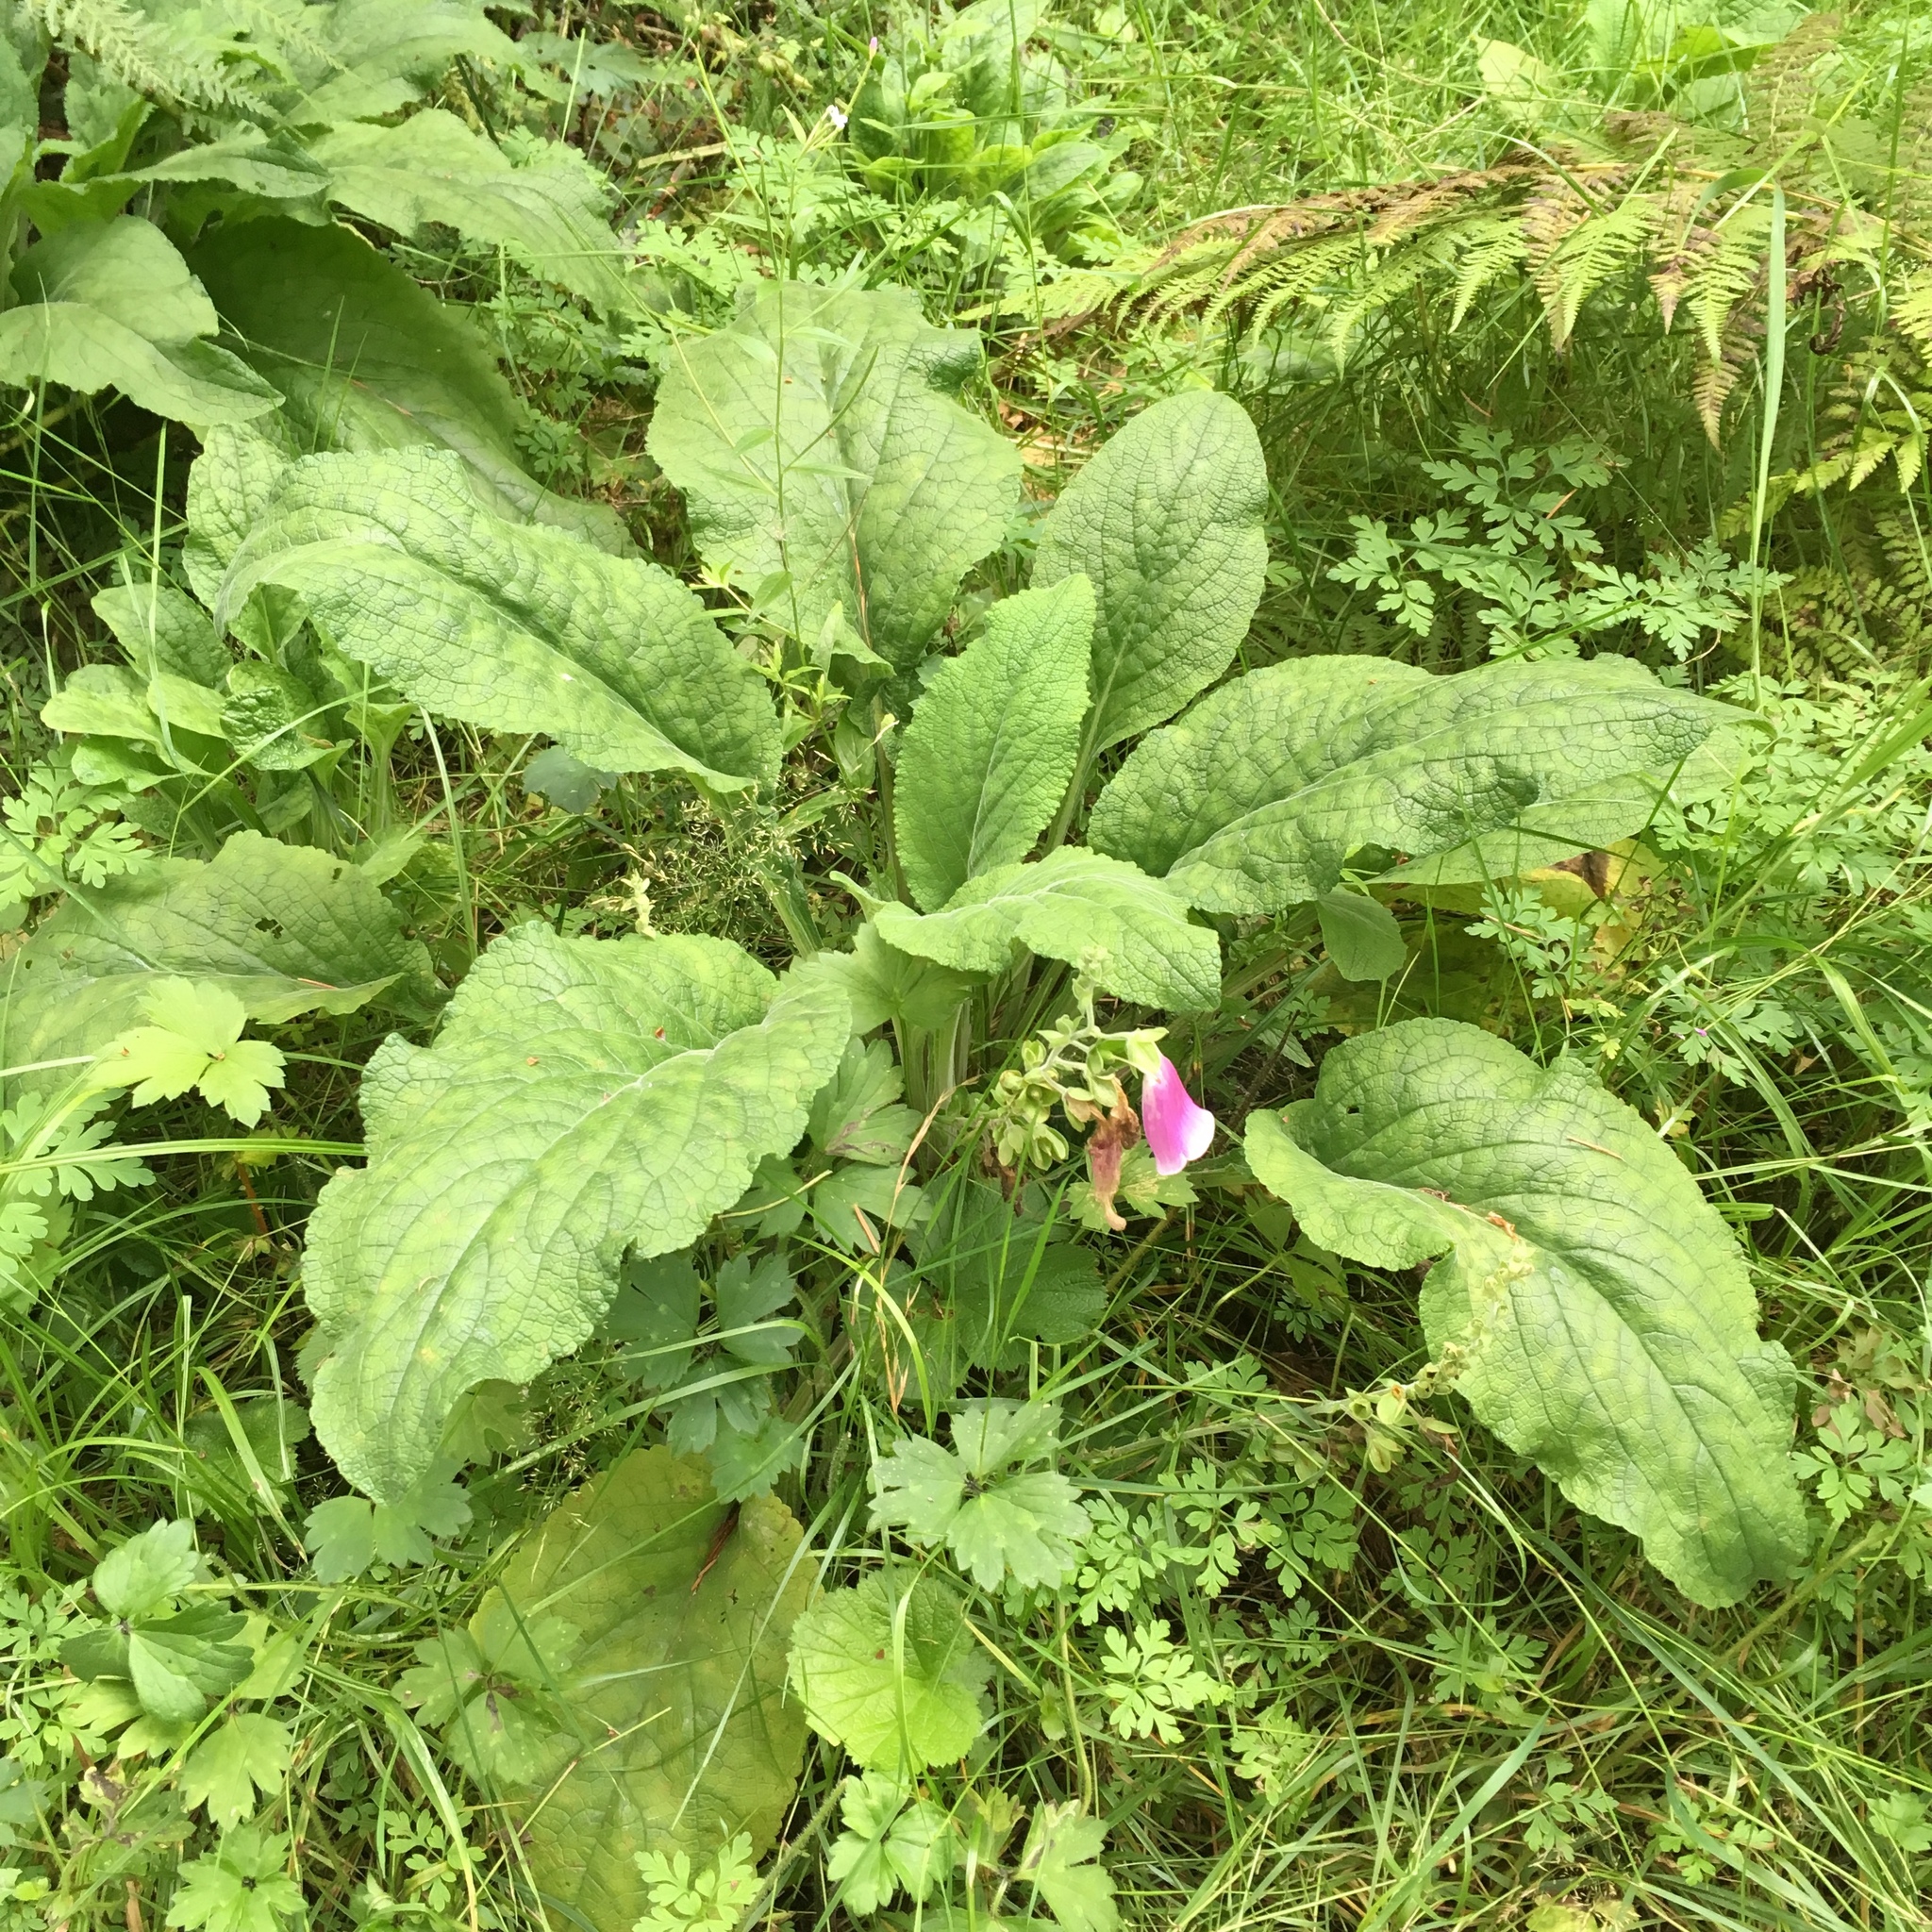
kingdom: Plantae
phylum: Tracheophyta
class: Magnoliopsida
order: Lamiales
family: Plantaginaceae
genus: Digitalis
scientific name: Digitalis purpurea
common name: Foxglove
